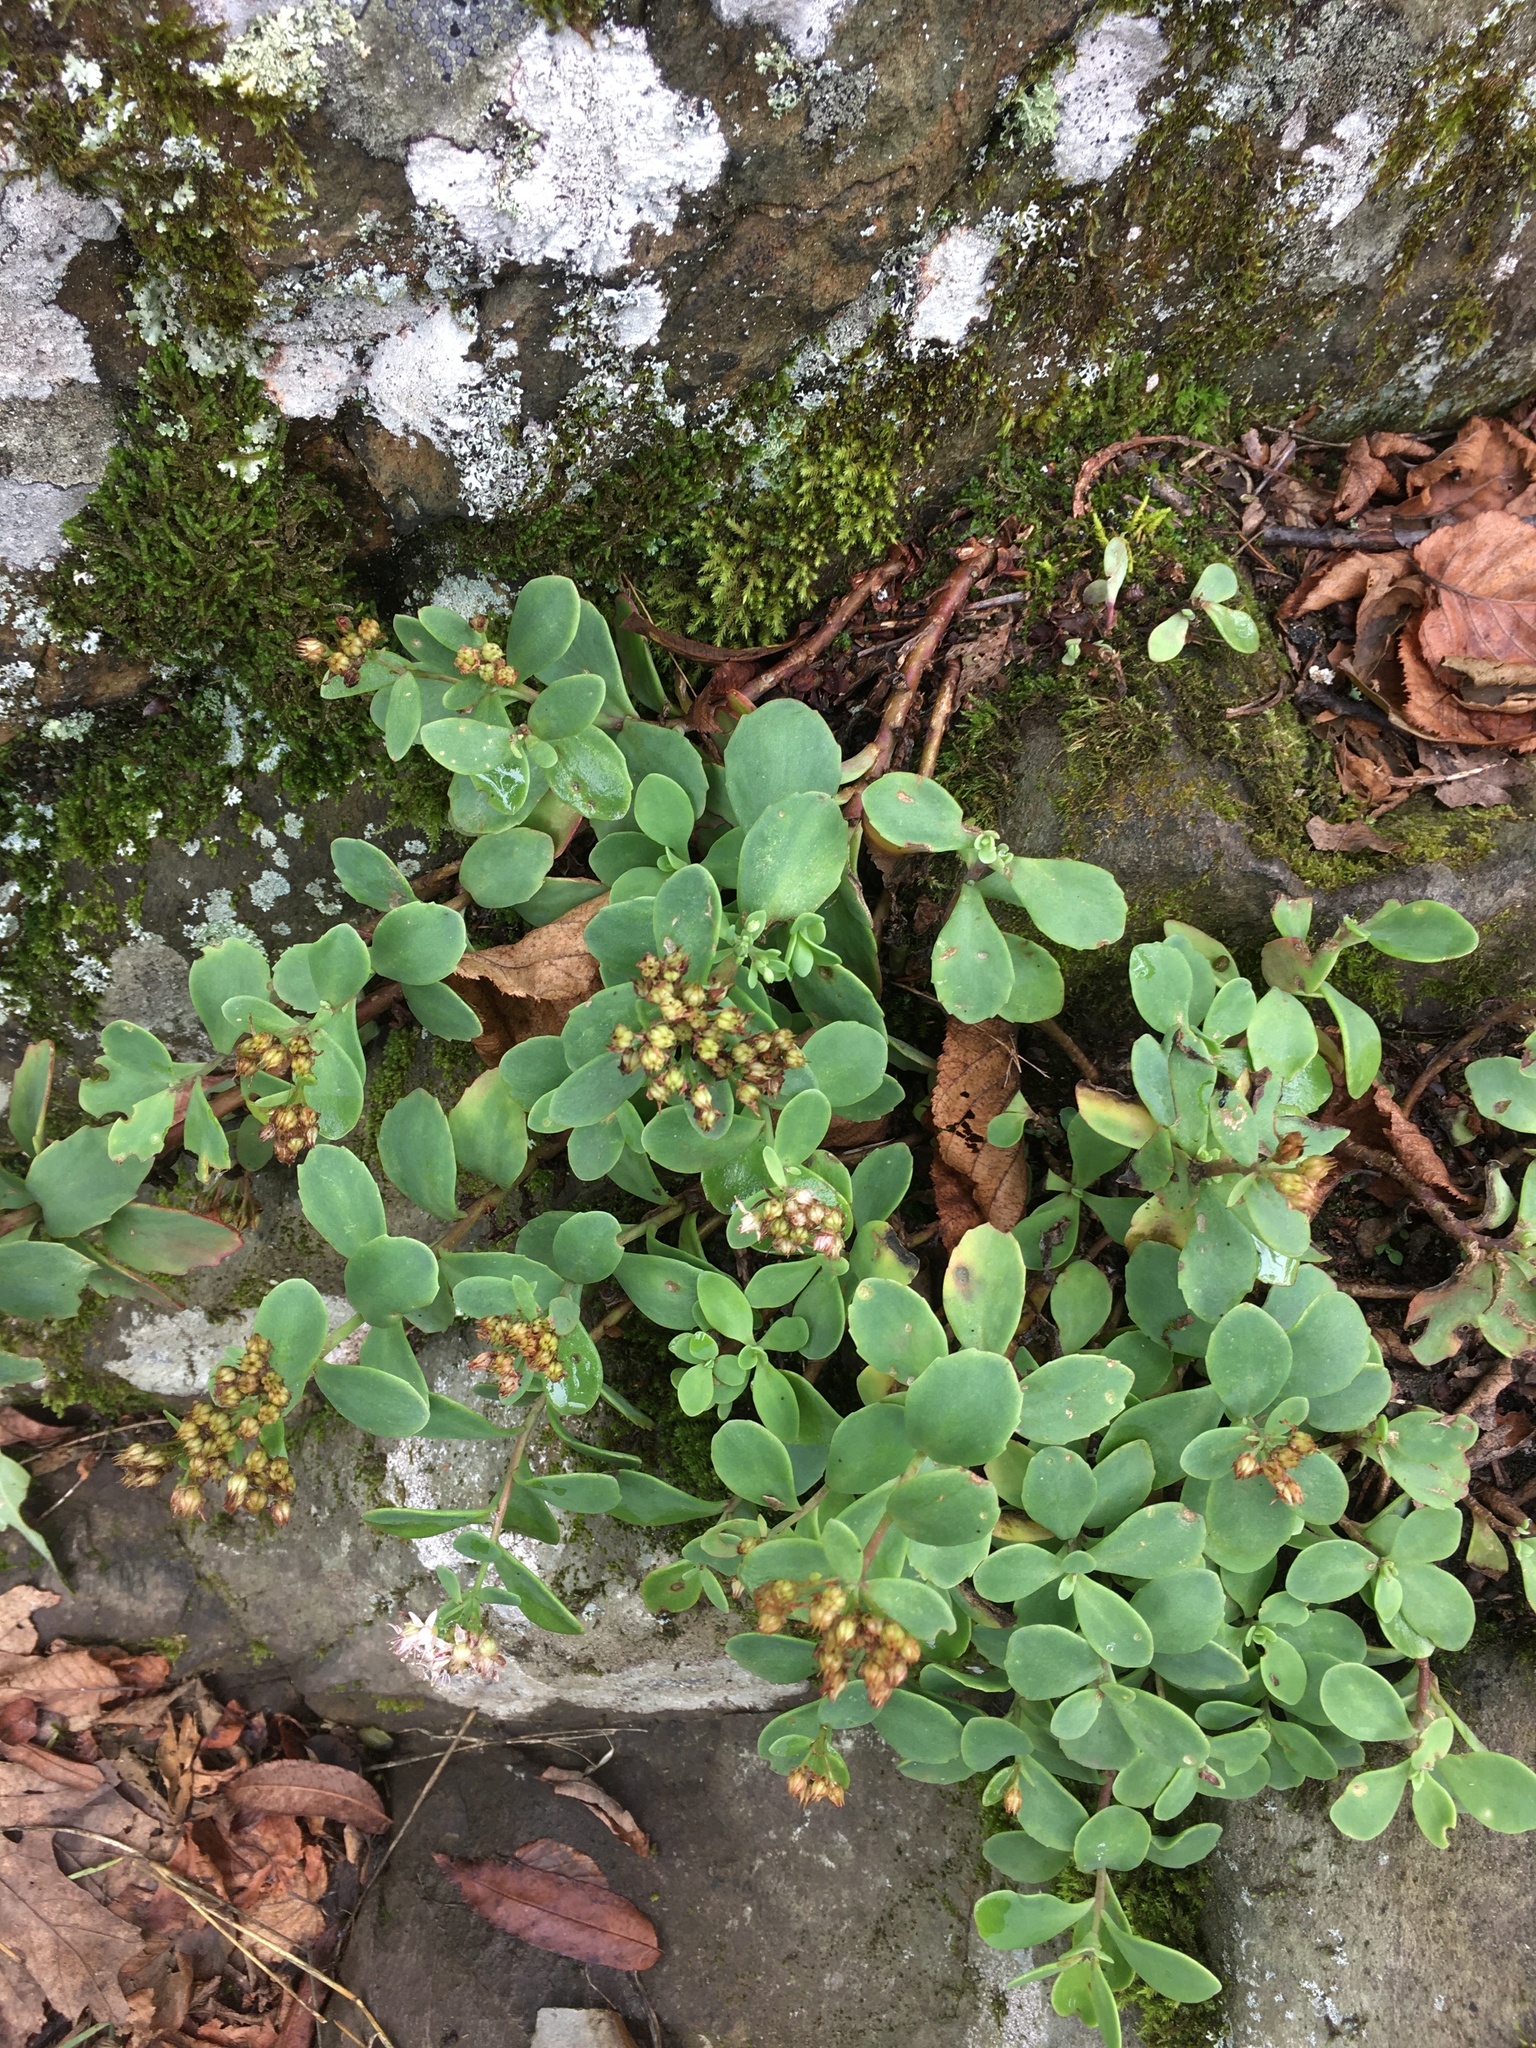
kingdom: Plantae
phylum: Tracheophyta
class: Magnoliopsida
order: Saxifragales
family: Crassulaceae
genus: Hylotelephium
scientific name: Hylotelephium telephioides
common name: Allegheny stonecrop
